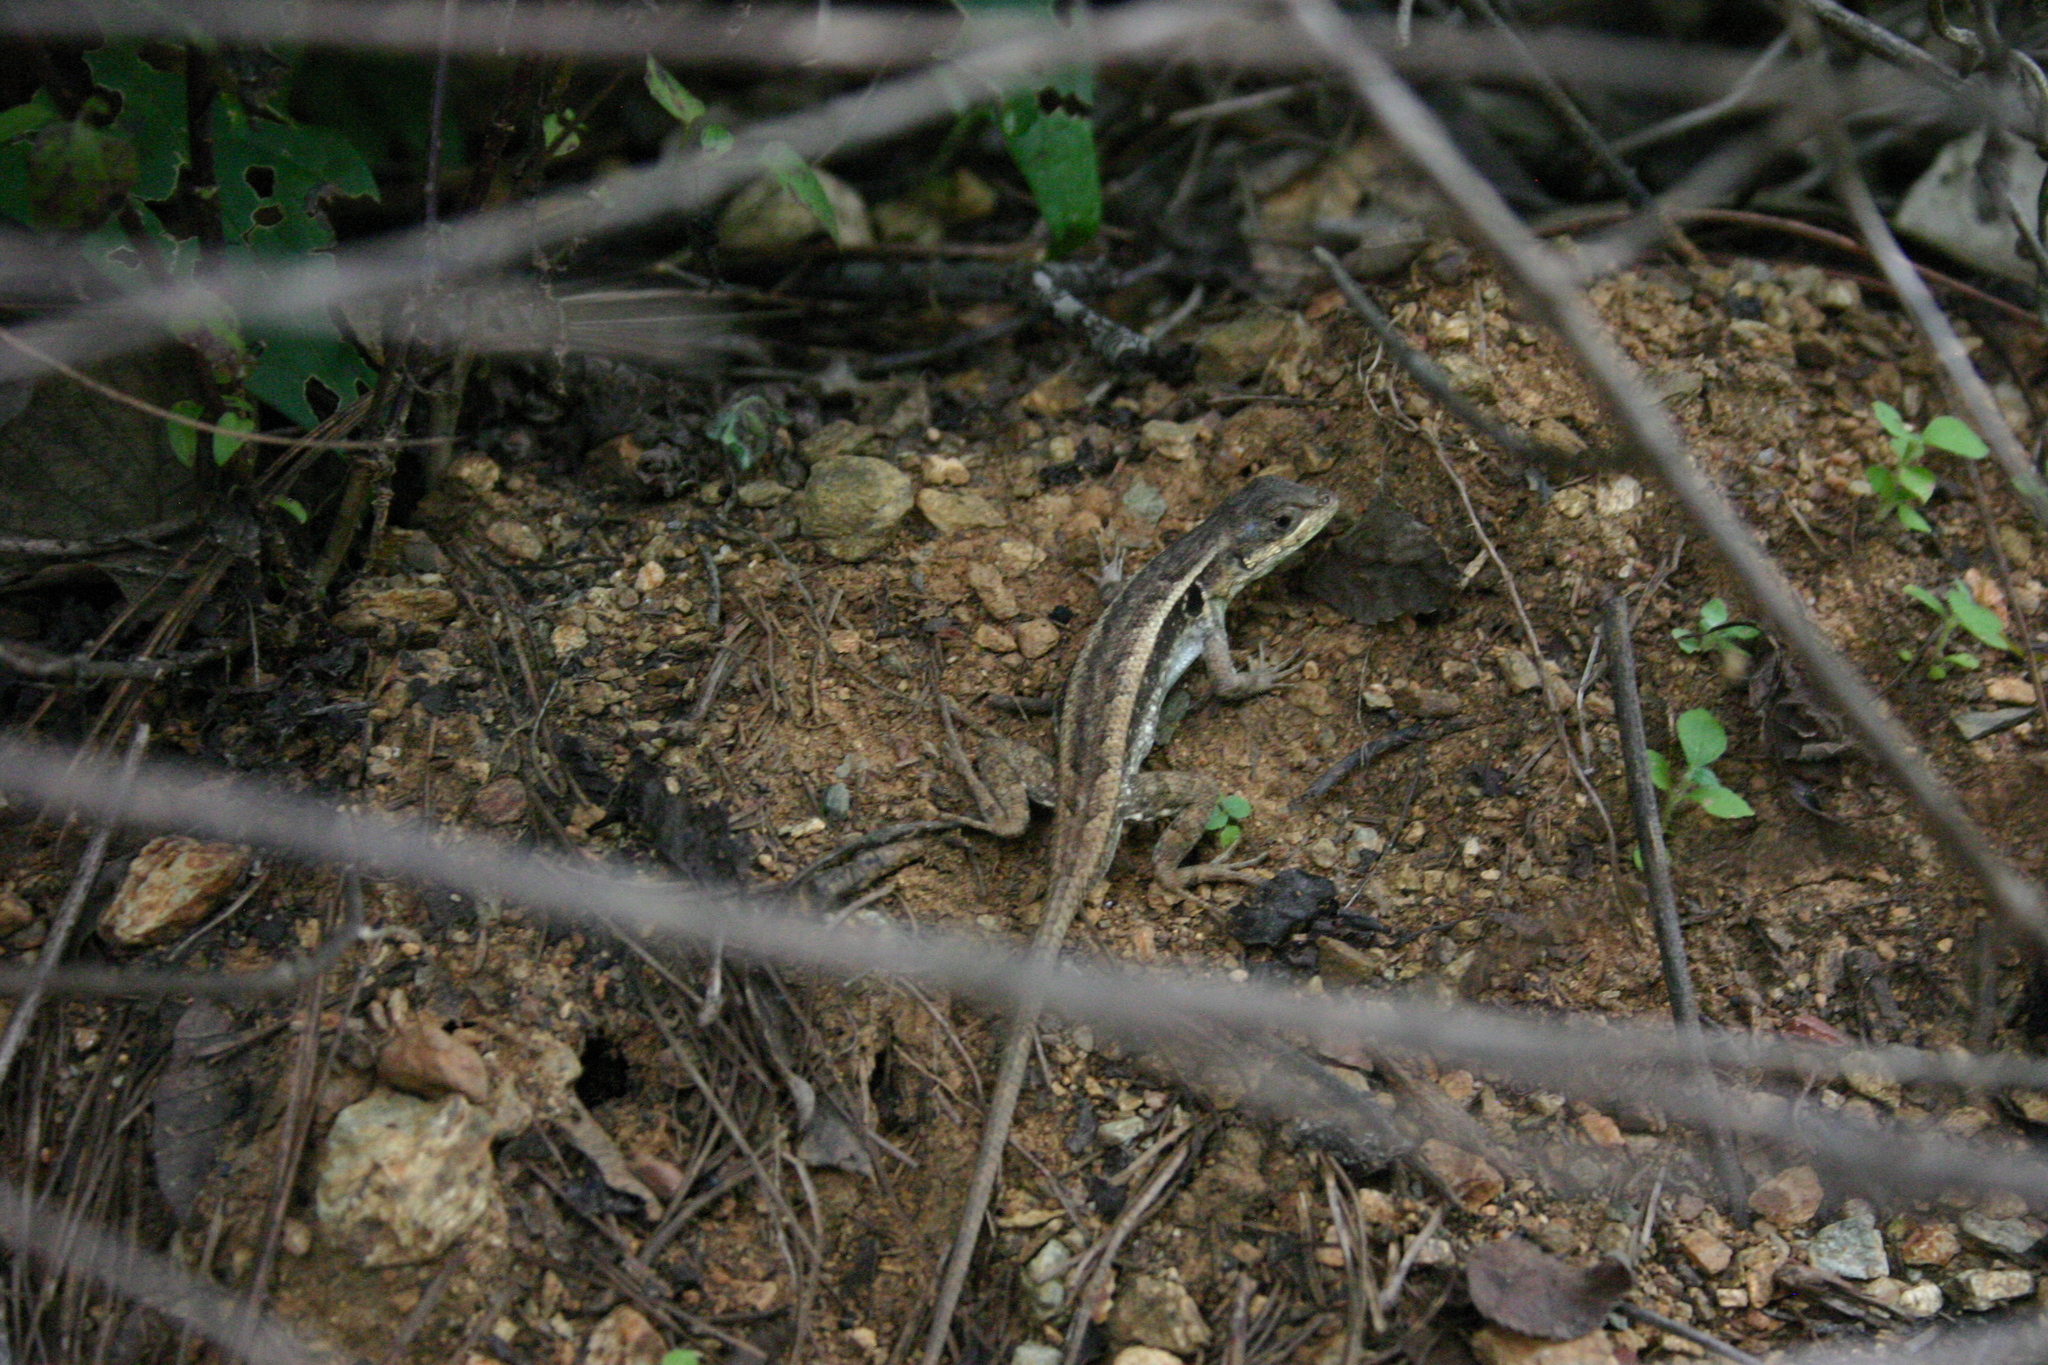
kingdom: Animalia
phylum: Chordata
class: Squamata
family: Phrynosomatidae
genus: Sceloporus
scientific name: Sceloporus siniferus
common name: Longtail spiny lizard
